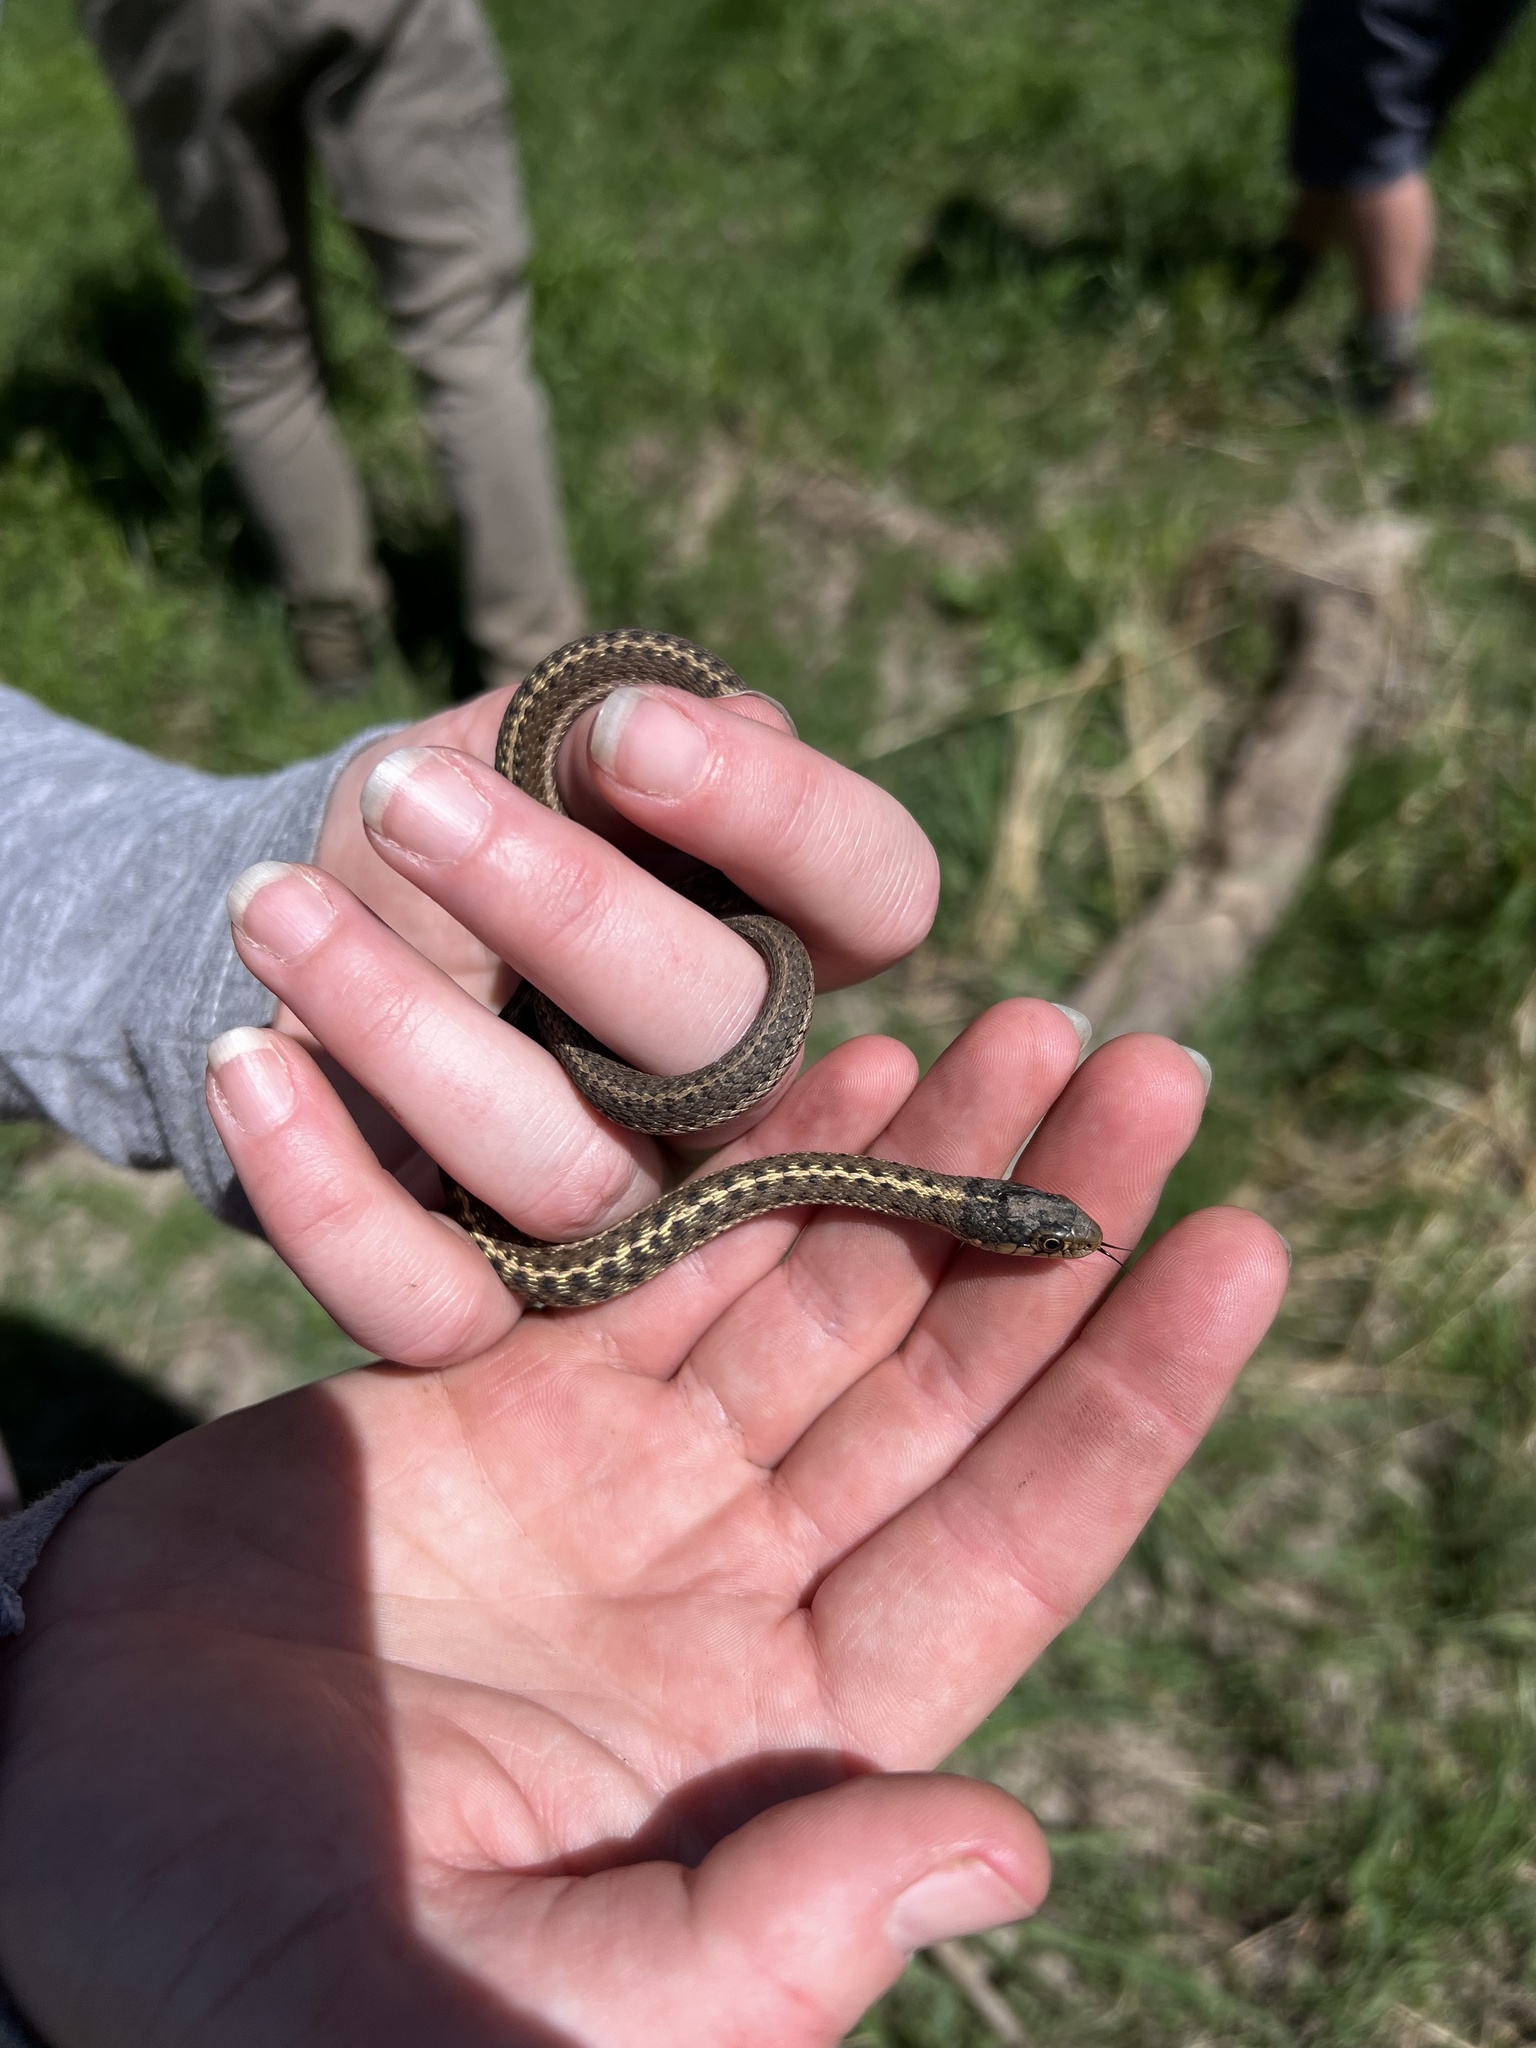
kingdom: Animalia
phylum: Chordata
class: Squamata
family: Colubridae
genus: Thamnophis
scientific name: Thamnophis elegans
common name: Western terrestrial garter snake
